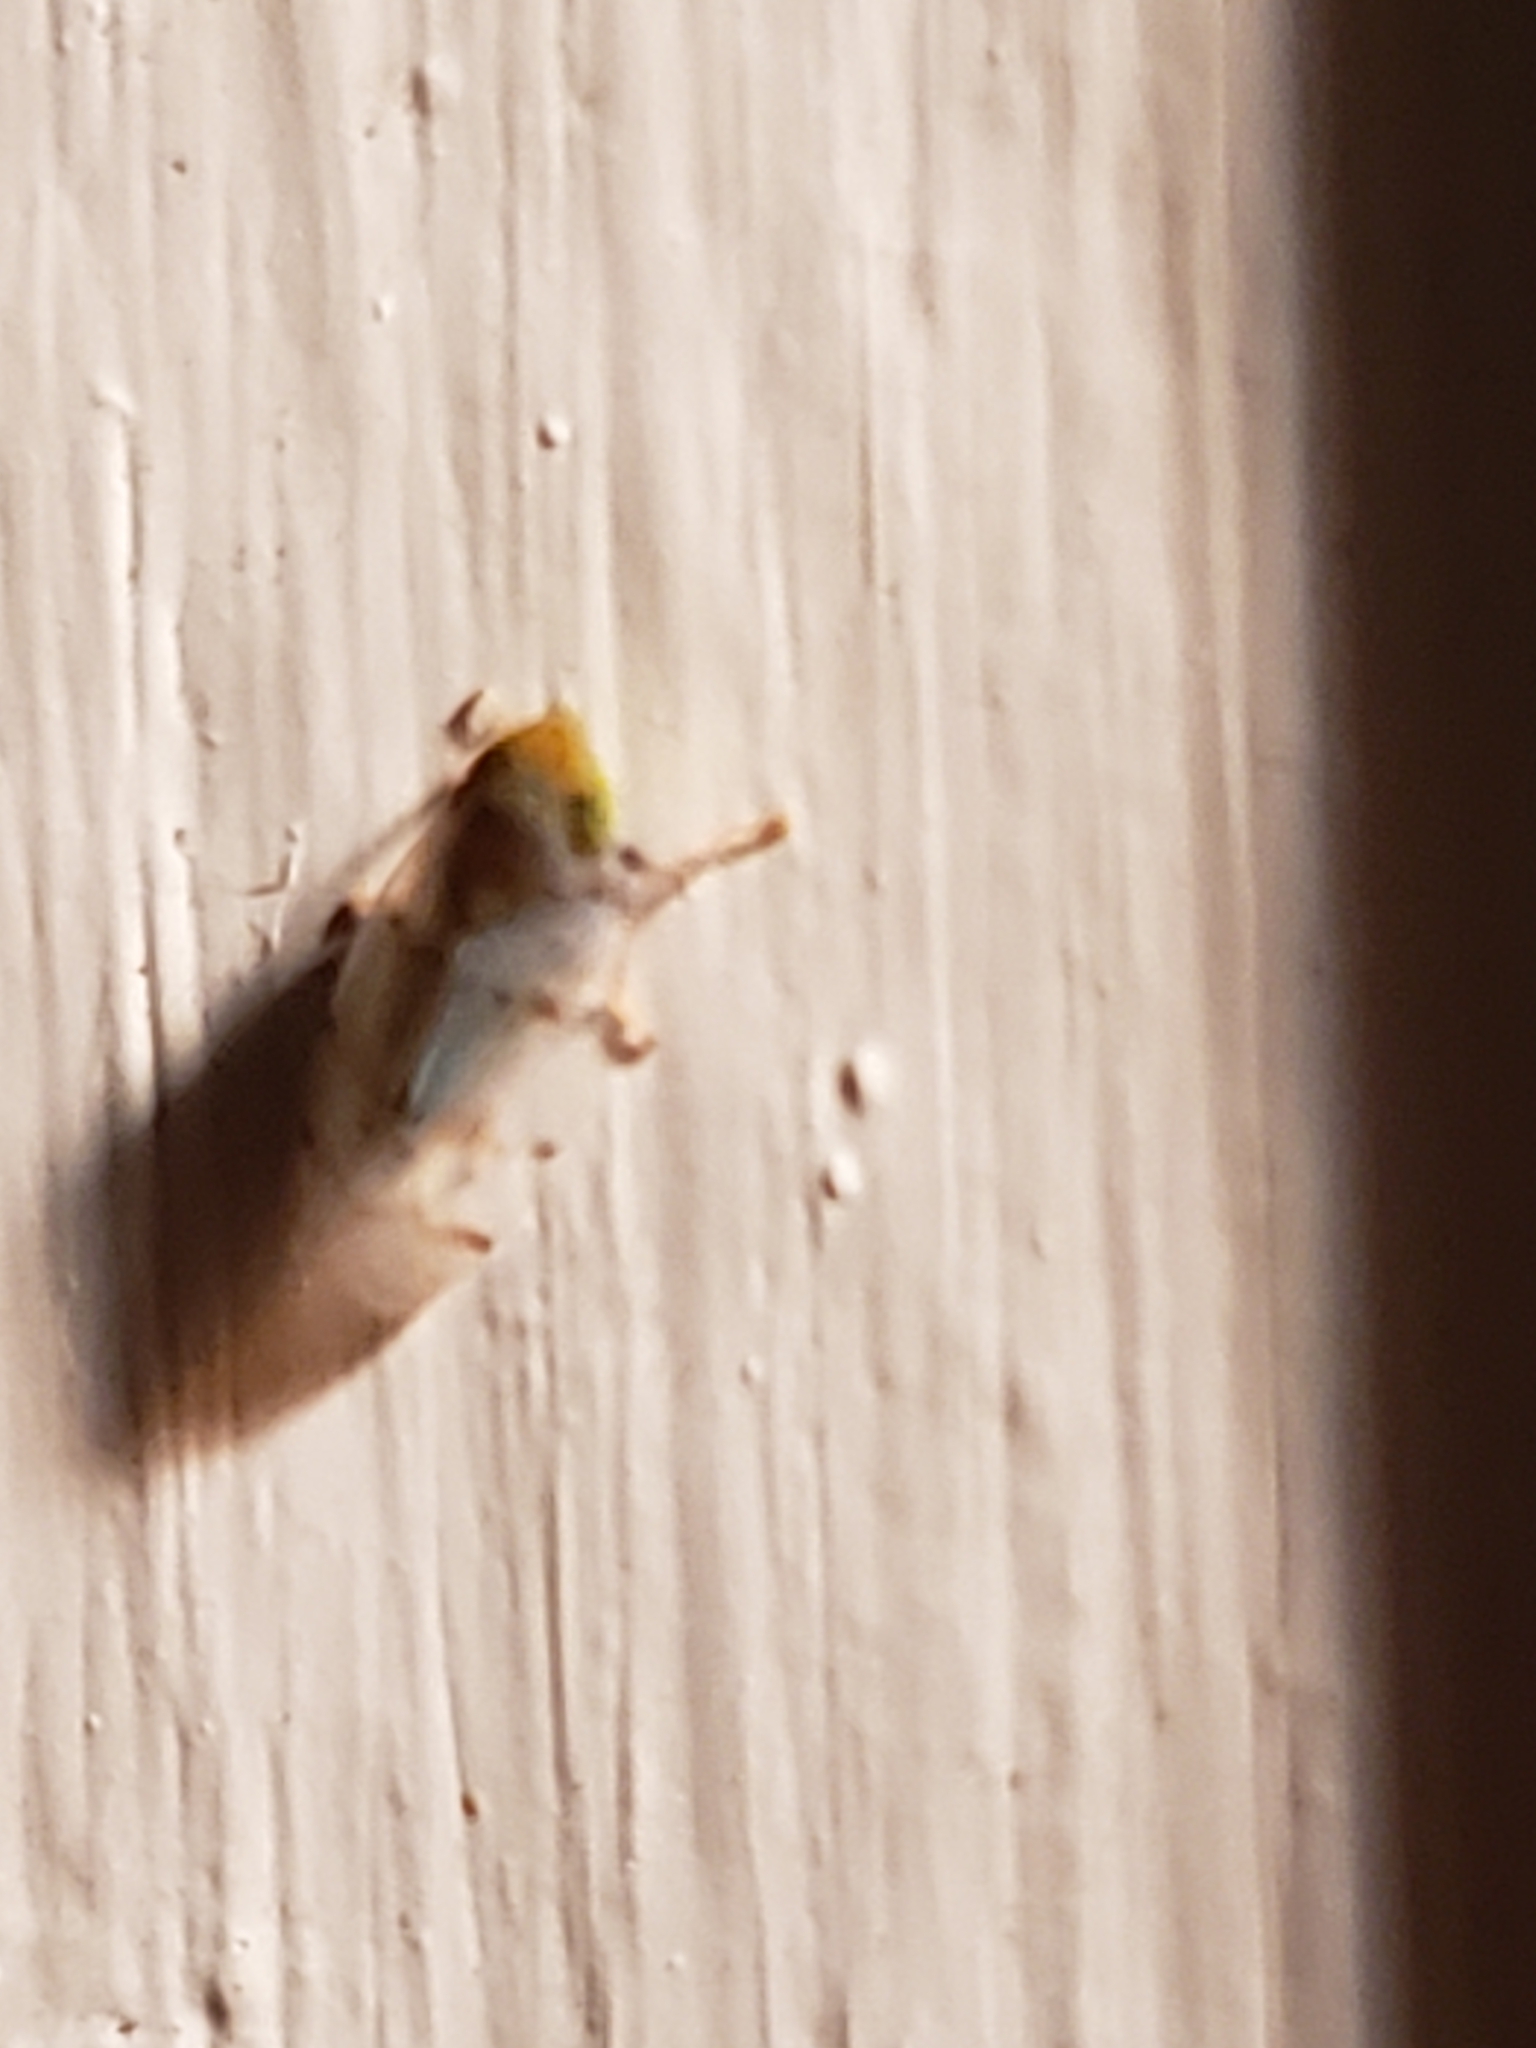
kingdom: Animalia
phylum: Arthropoda
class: Insecta
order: Hemiptera
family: Cicadellidae
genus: Japananus
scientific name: Japananus hyalinus
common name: The japanese maple leafhopper
